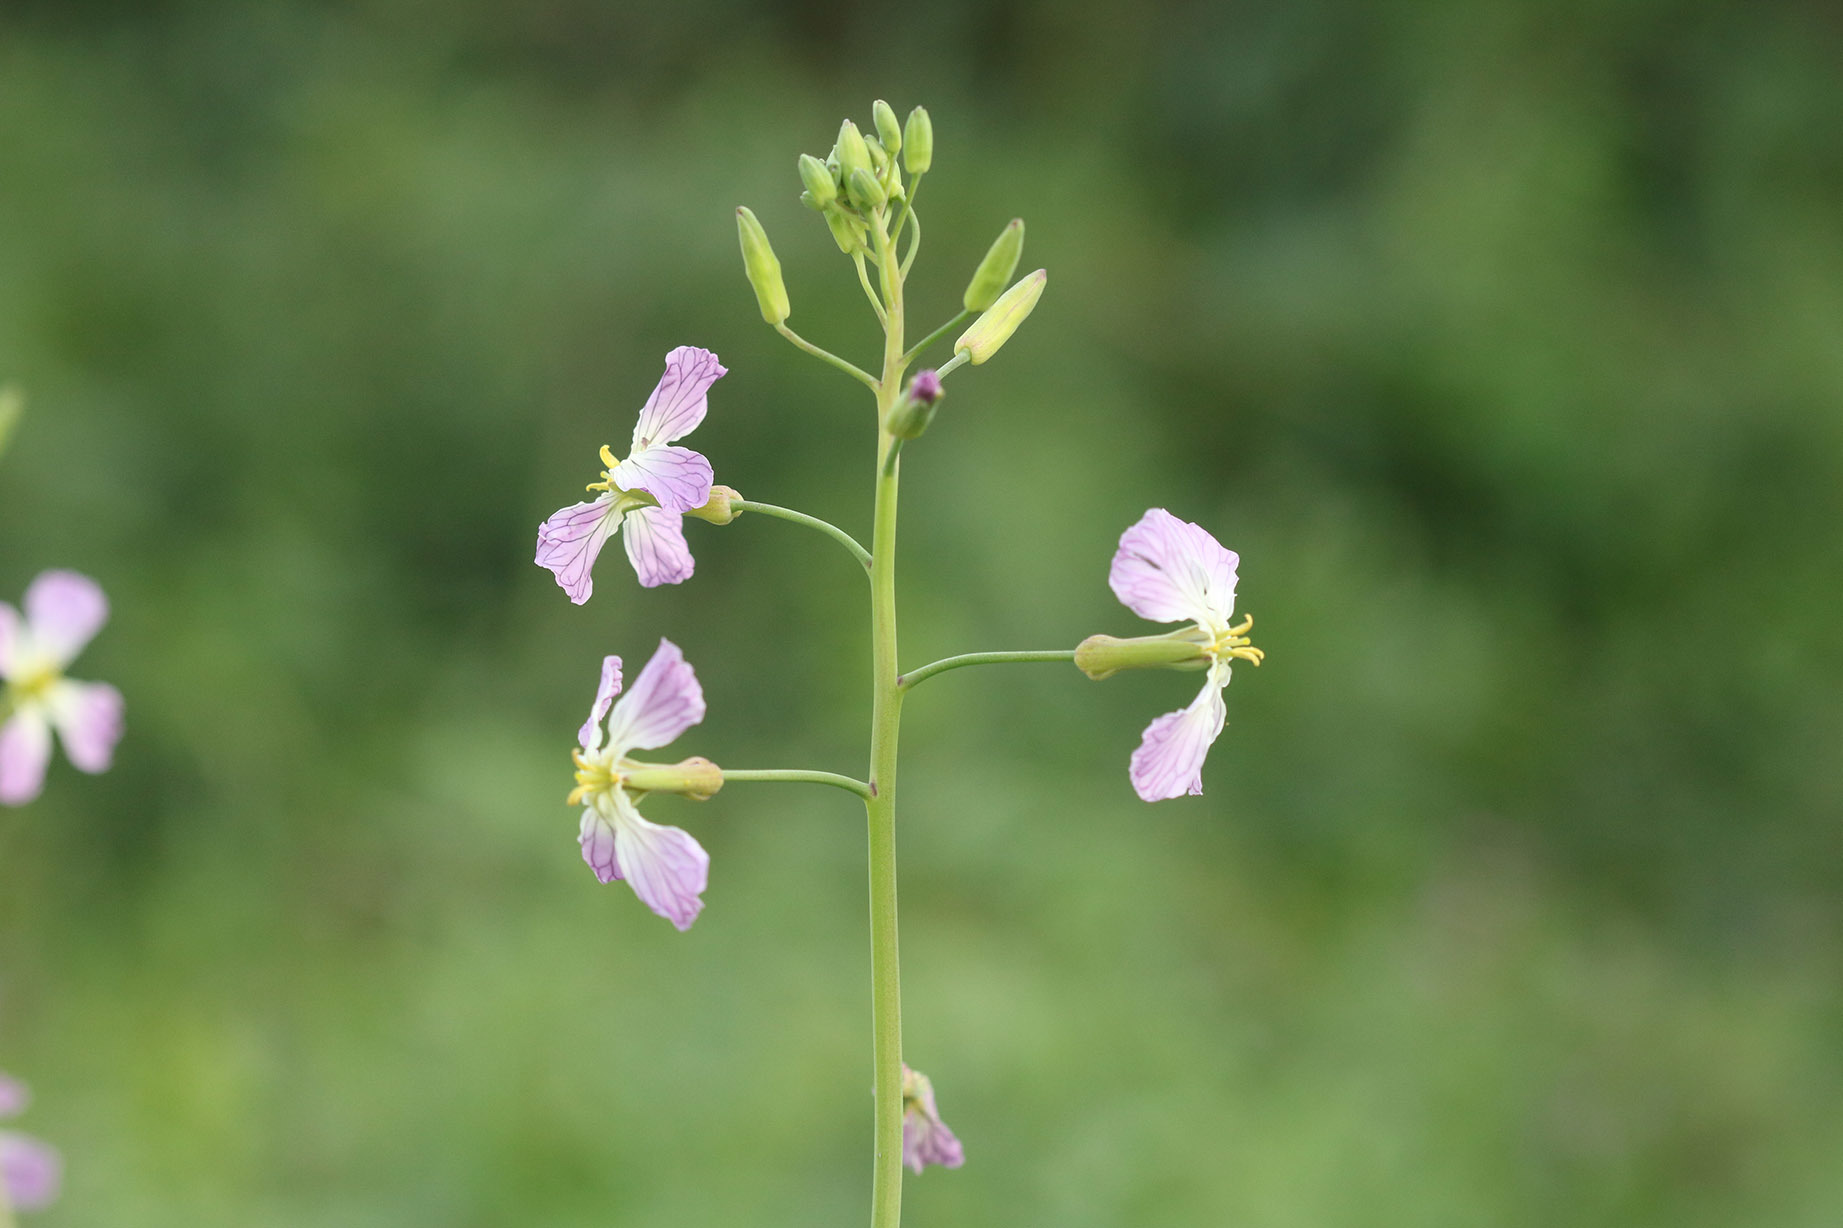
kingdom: Plantae
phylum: Tracheophyta
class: Magnoliopsida
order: Brassicales
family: Brassicaceae
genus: Raphanus
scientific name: Raphanus sativus
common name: Cultivated radish
